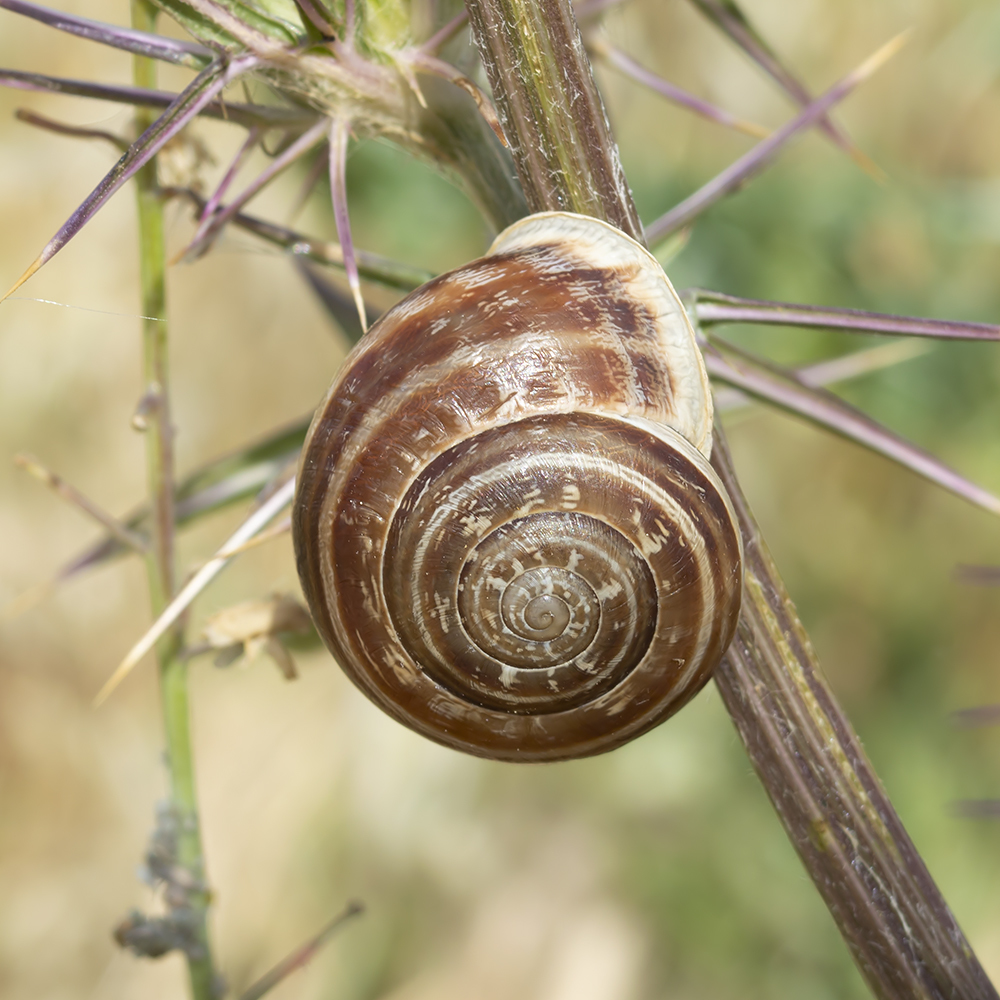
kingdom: Animalia
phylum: Mollusca
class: Gastropoda
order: Stylommatophora
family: Helicidae
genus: Eobania
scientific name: Eobania vermiculata
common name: Chocolateband snail
